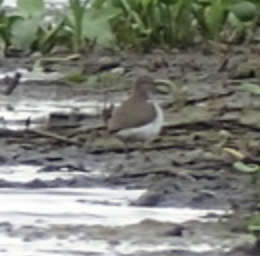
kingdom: Animalia
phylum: Chordata
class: Aves
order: Charadriiformes
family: Scolopacidae
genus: Actitis
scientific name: Actitis hypoleucos
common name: Common sandpiper
